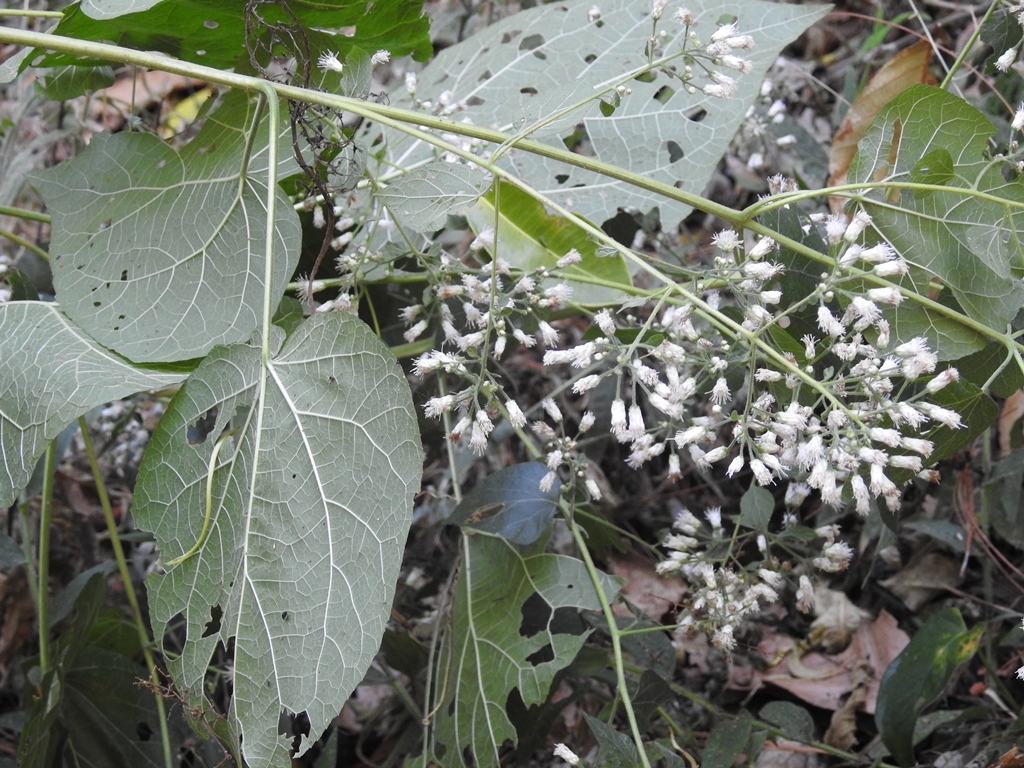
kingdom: Plantae
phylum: Tracheophyta
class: Magnoliopsida
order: Asterales
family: Asteraceae
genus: Peteravenia
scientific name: Peteravenia schultzii
